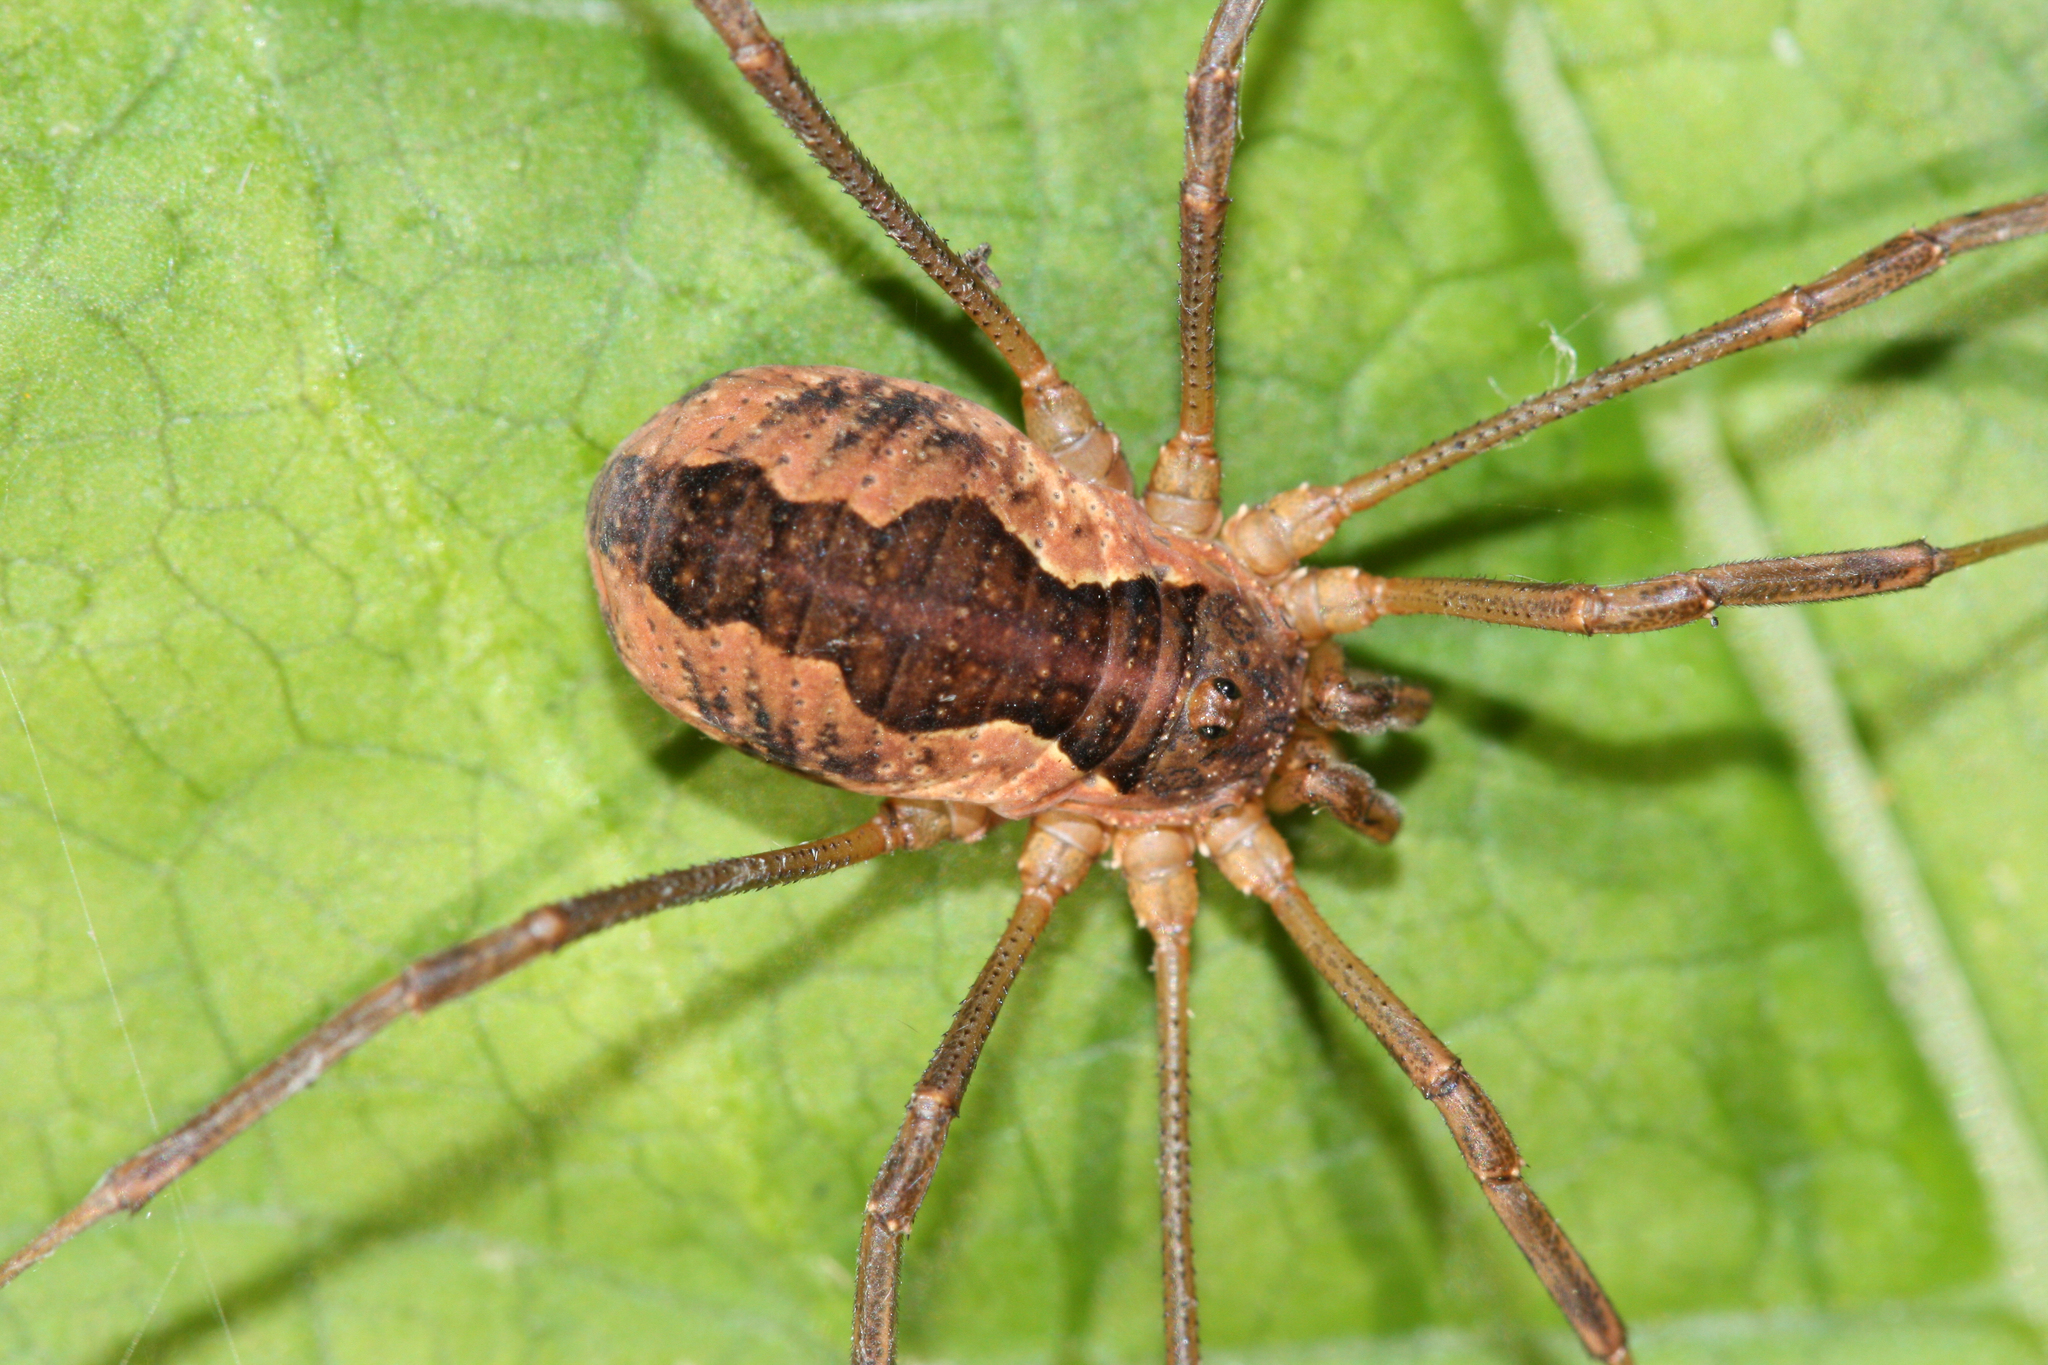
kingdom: Animalia
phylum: Arthropoda
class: Arachnida
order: Opiliones
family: Phalangiidae
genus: Mitopus
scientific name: Mitopus morio
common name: Saddleback harvestman
